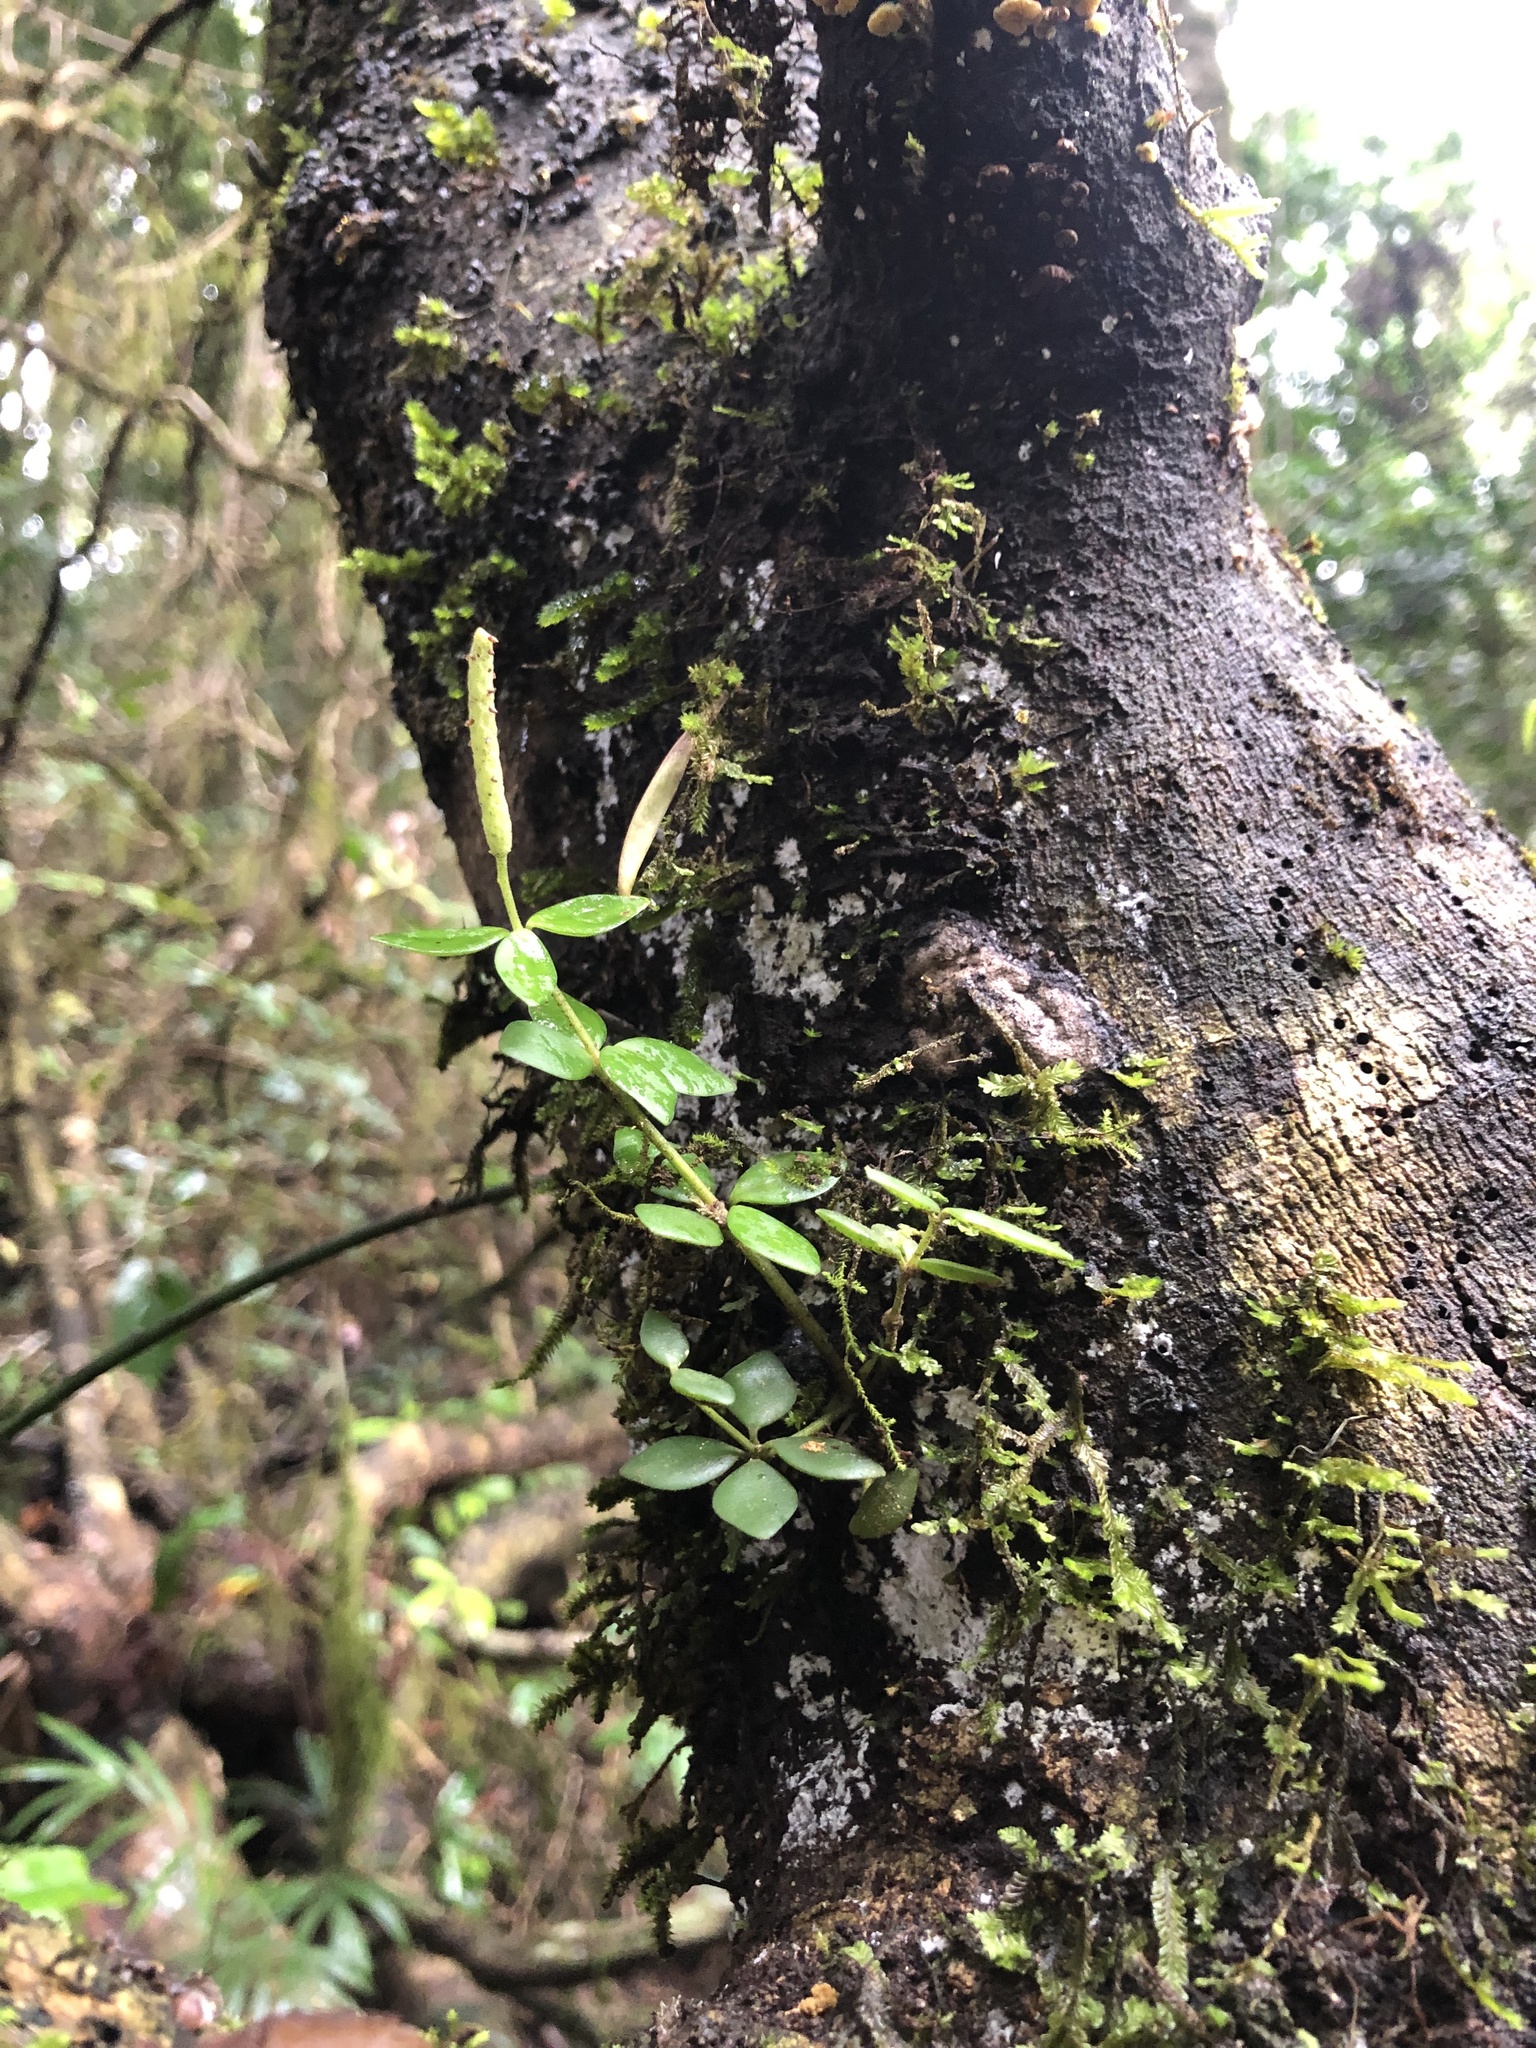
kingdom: Plantae
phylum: Tracheophyta
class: Magnoliopsida
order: Piperales
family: Piperaceae
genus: Peperomia
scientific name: Peperomia tetraphylla
